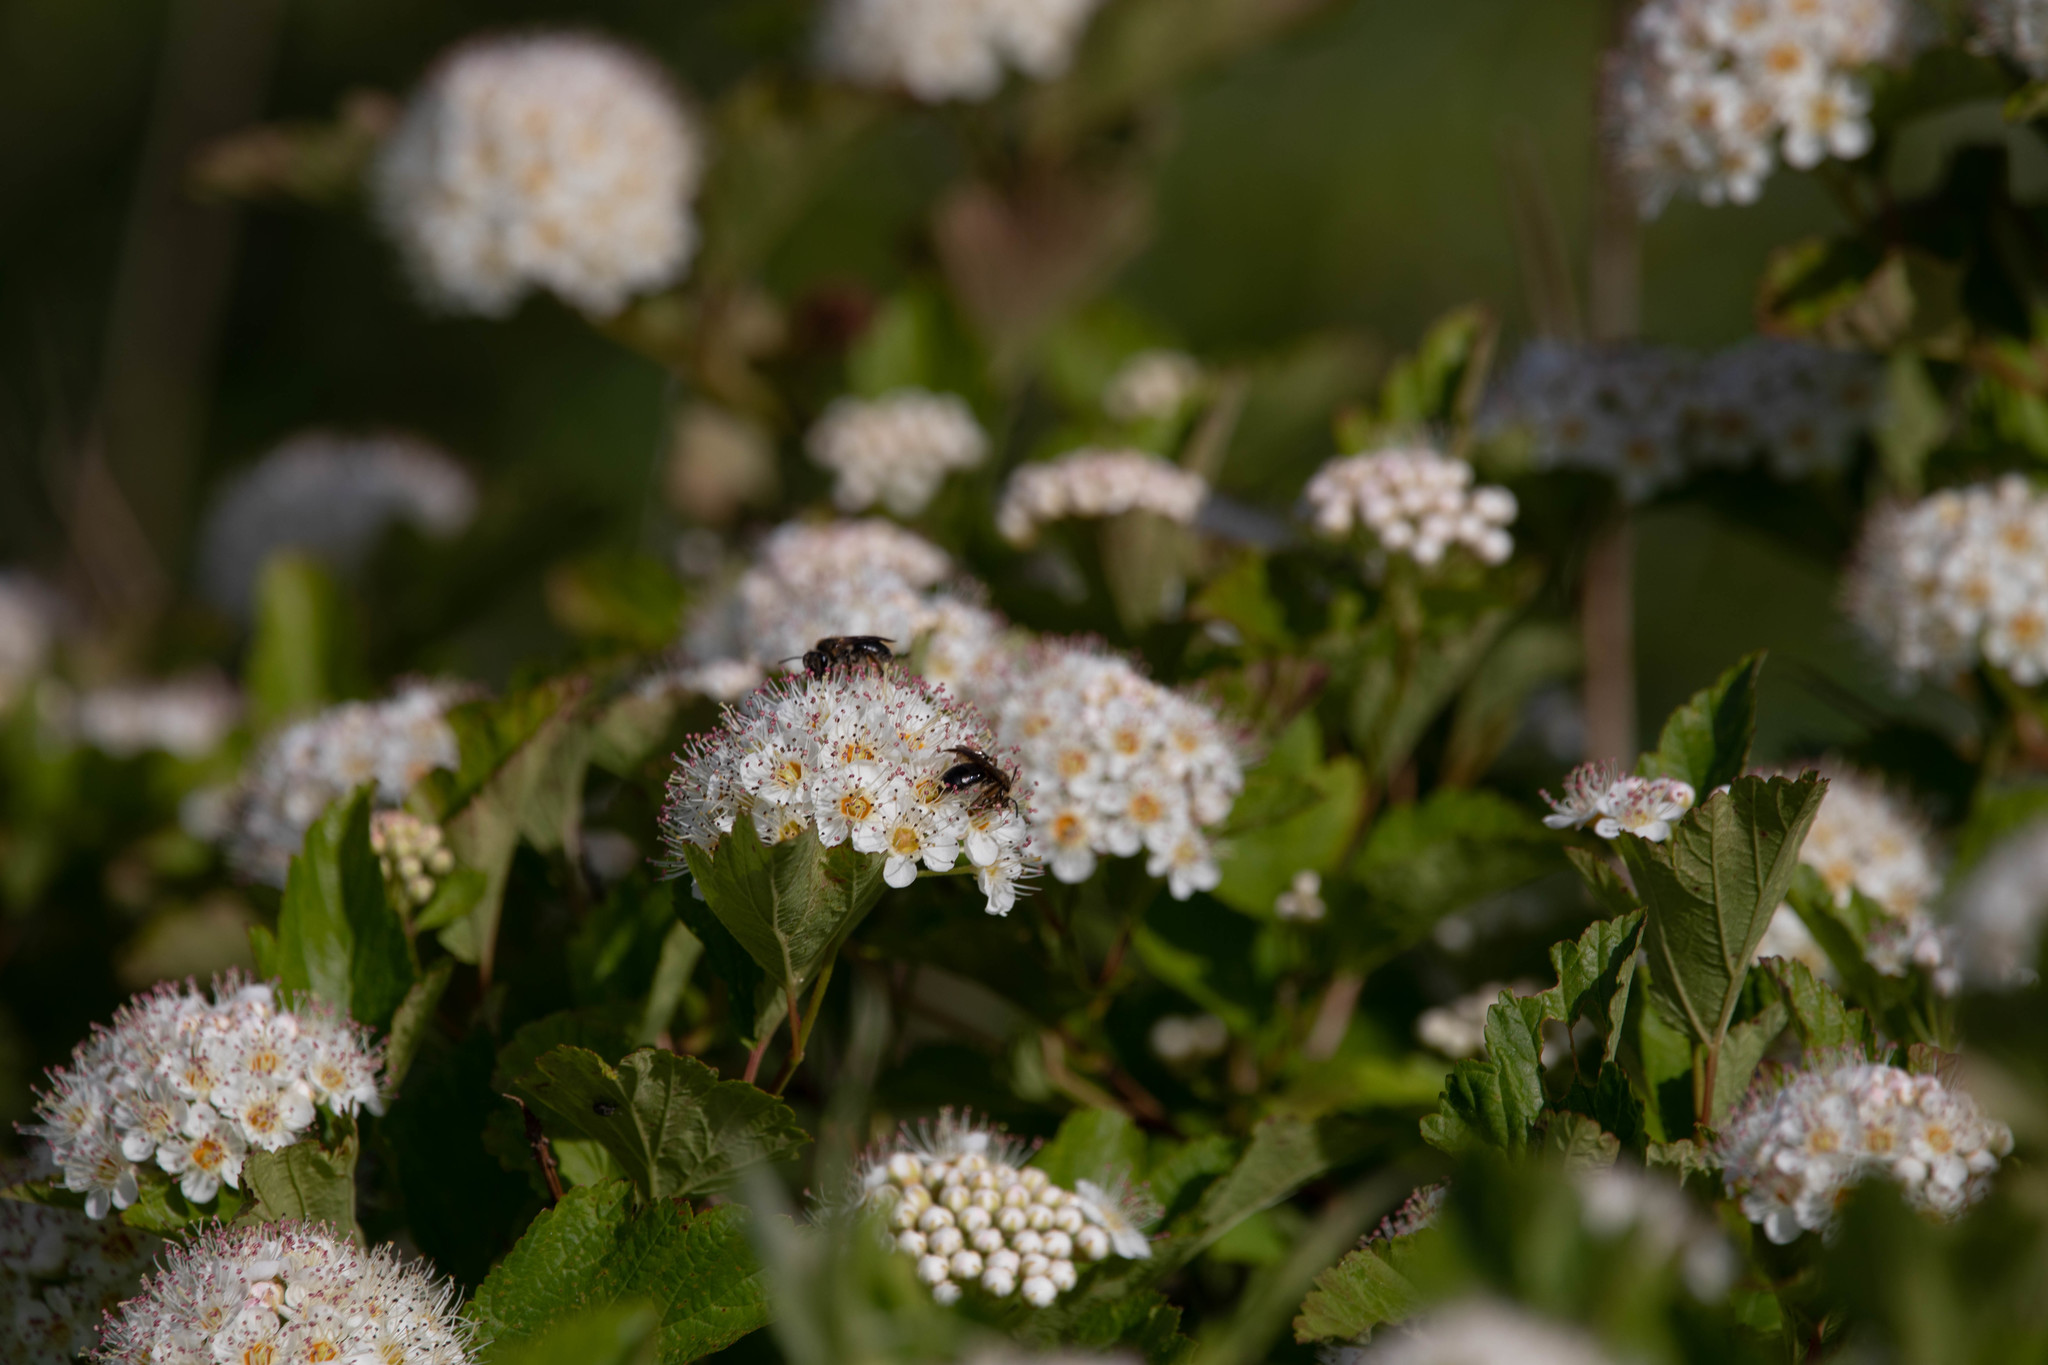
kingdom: Plantae
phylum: Tracheophyta
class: Magnoliopsida
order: Rosales
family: Rosaceae
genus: Physocarpus
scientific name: Physocarpus opulifolius
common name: Ninebark
